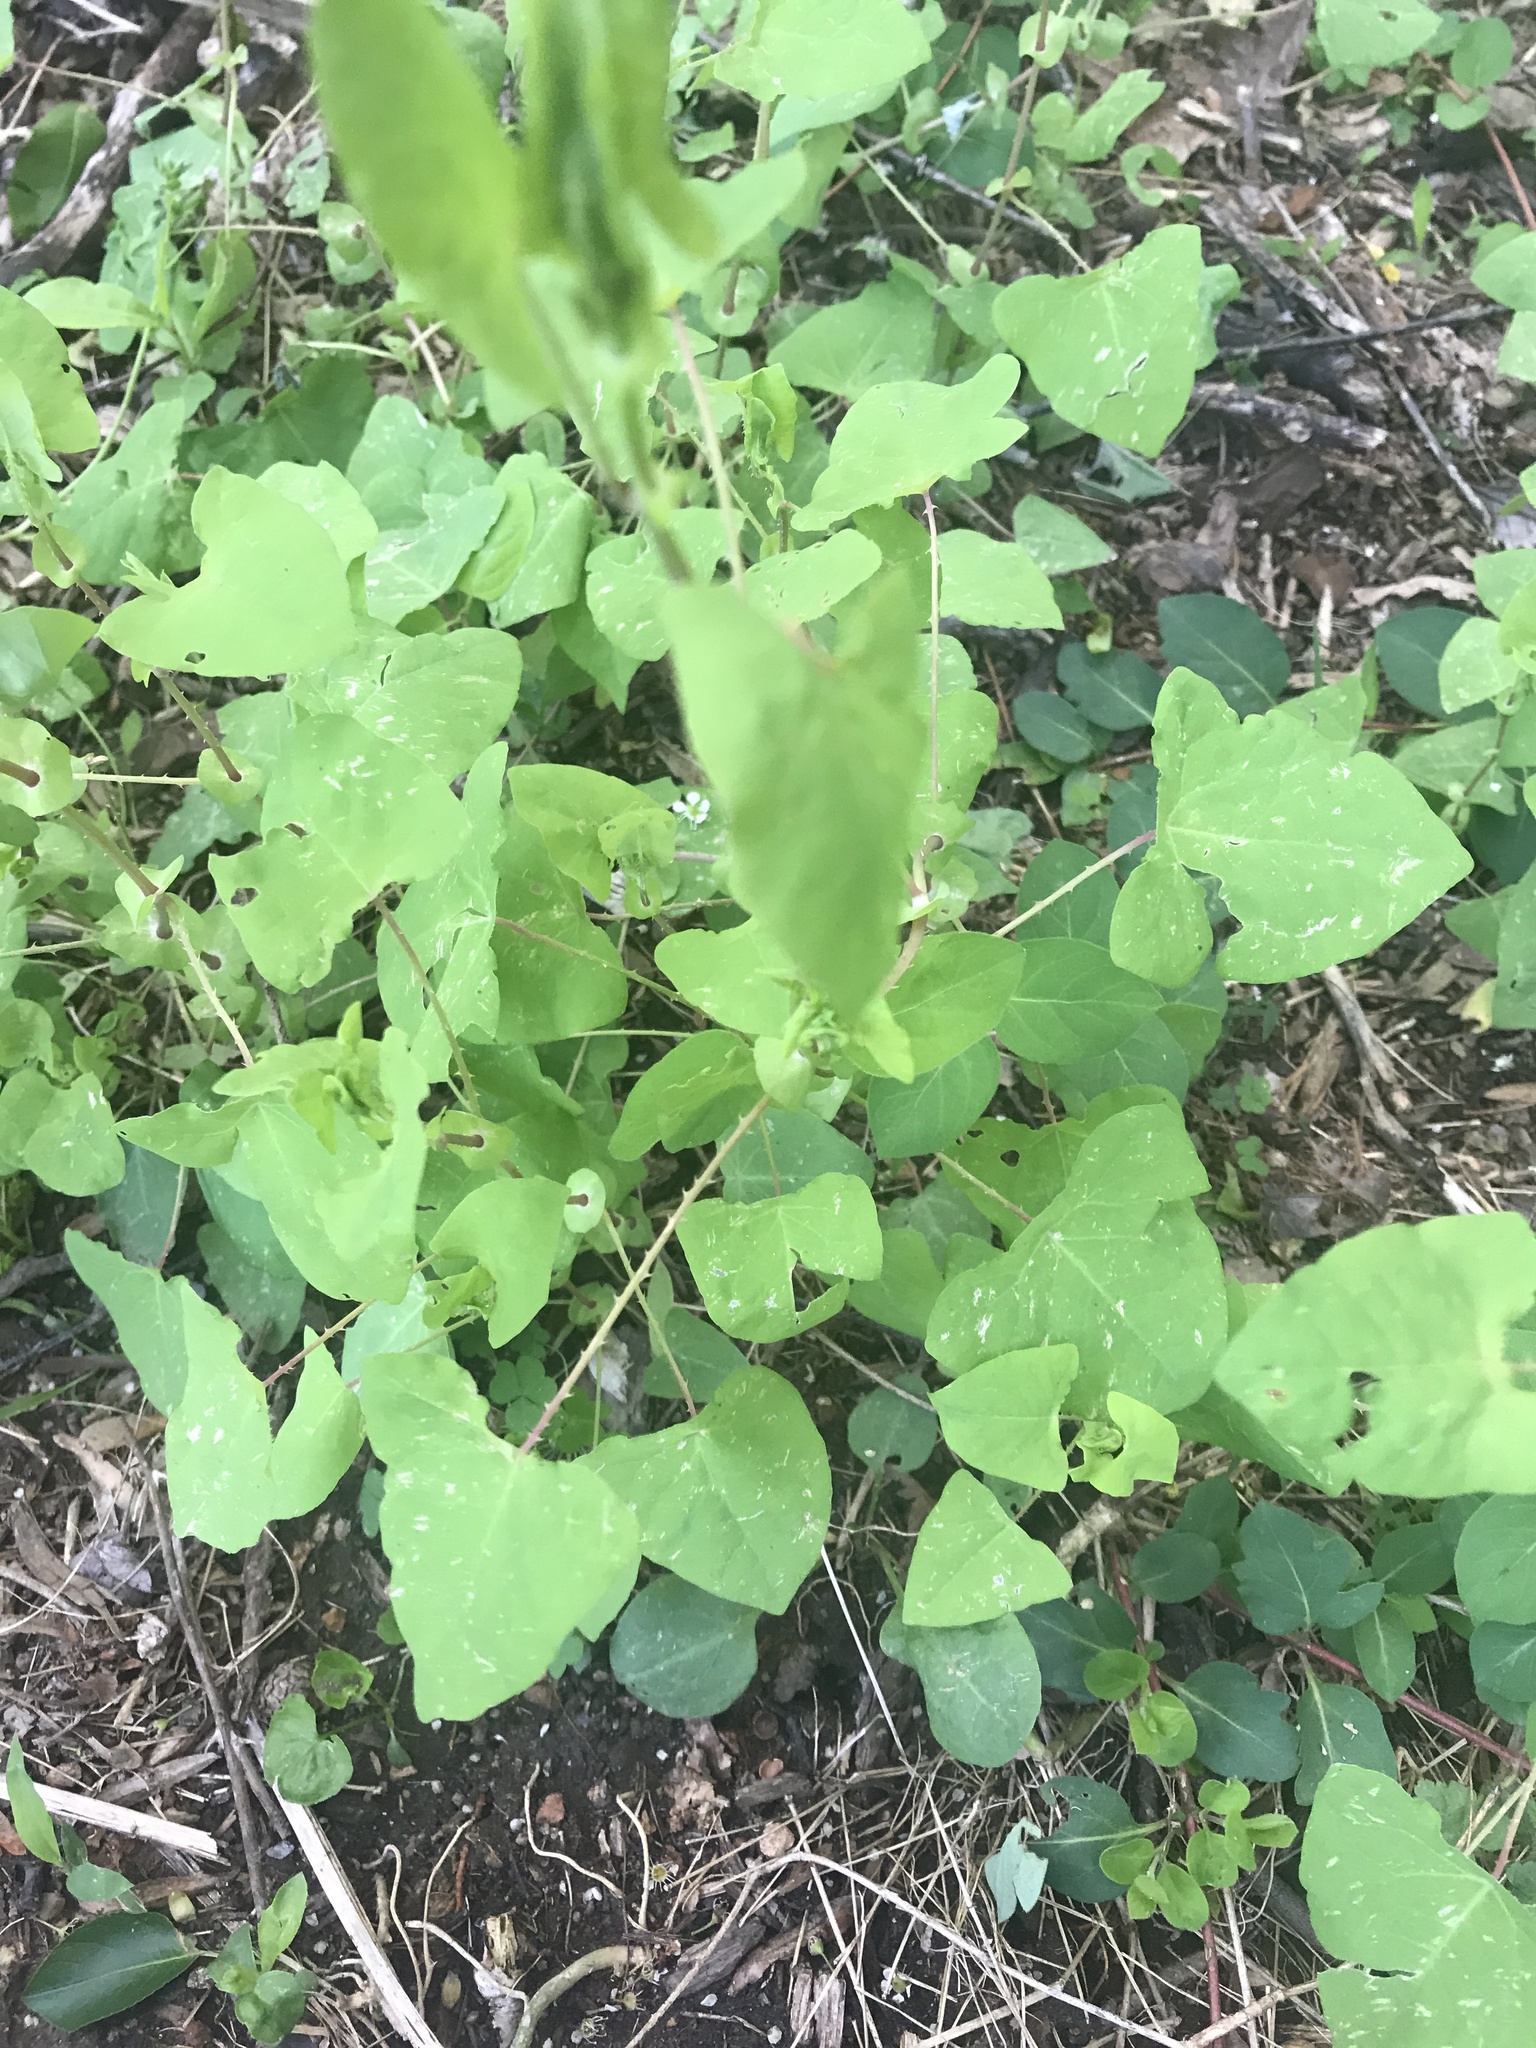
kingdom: Plantae
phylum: Tracheophyta
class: Magnoliopsida
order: Caryophyllales
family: Polygonaceae
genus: Persicaria
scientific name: Persicaria perfoliata
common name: Asiatic tearthumb
